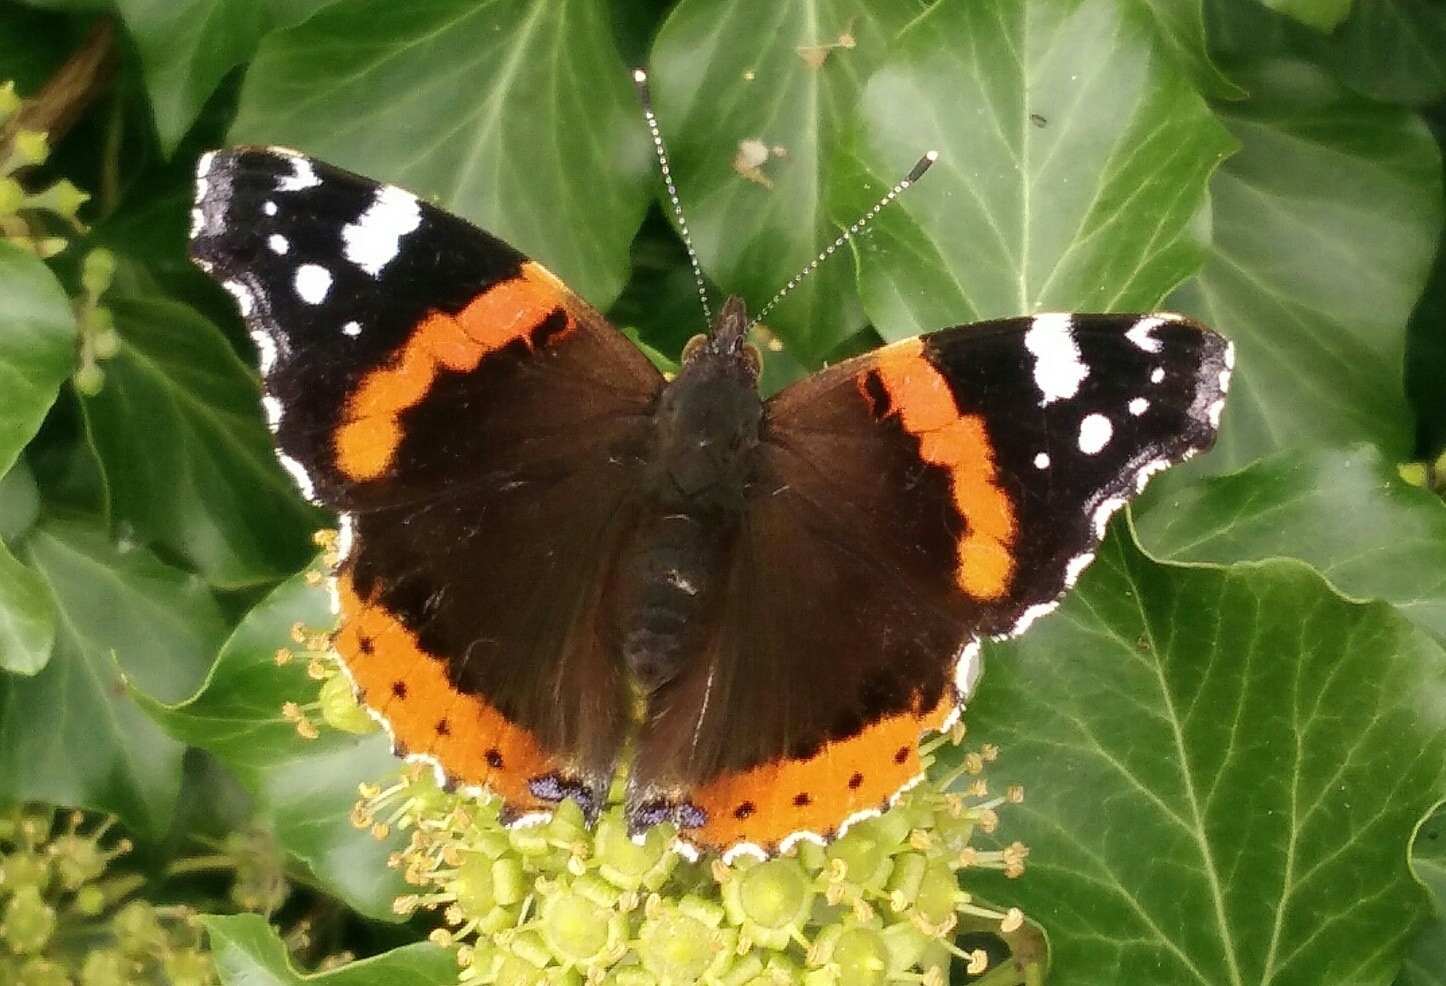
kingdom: Animalia
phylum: Arthropoda
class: Insecta
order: Lepidoptera
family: Nymphalidae
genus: Vanessa
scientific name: Vanessa atalanta
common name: Red admiral
